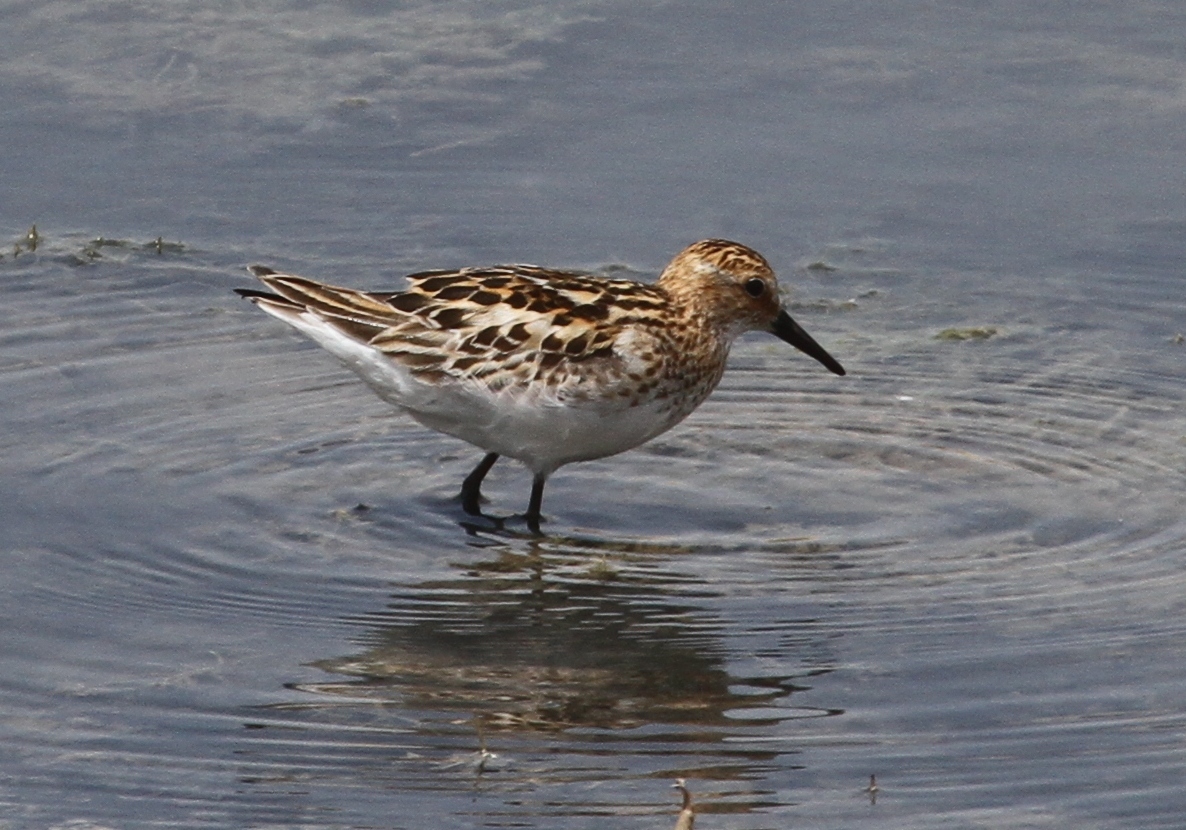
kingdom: Animalia
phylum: Chordata
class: Aves
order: Charadriiformes
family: Scolopacidae
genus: Calidris
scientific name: Calidris minuta
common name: Little stint
